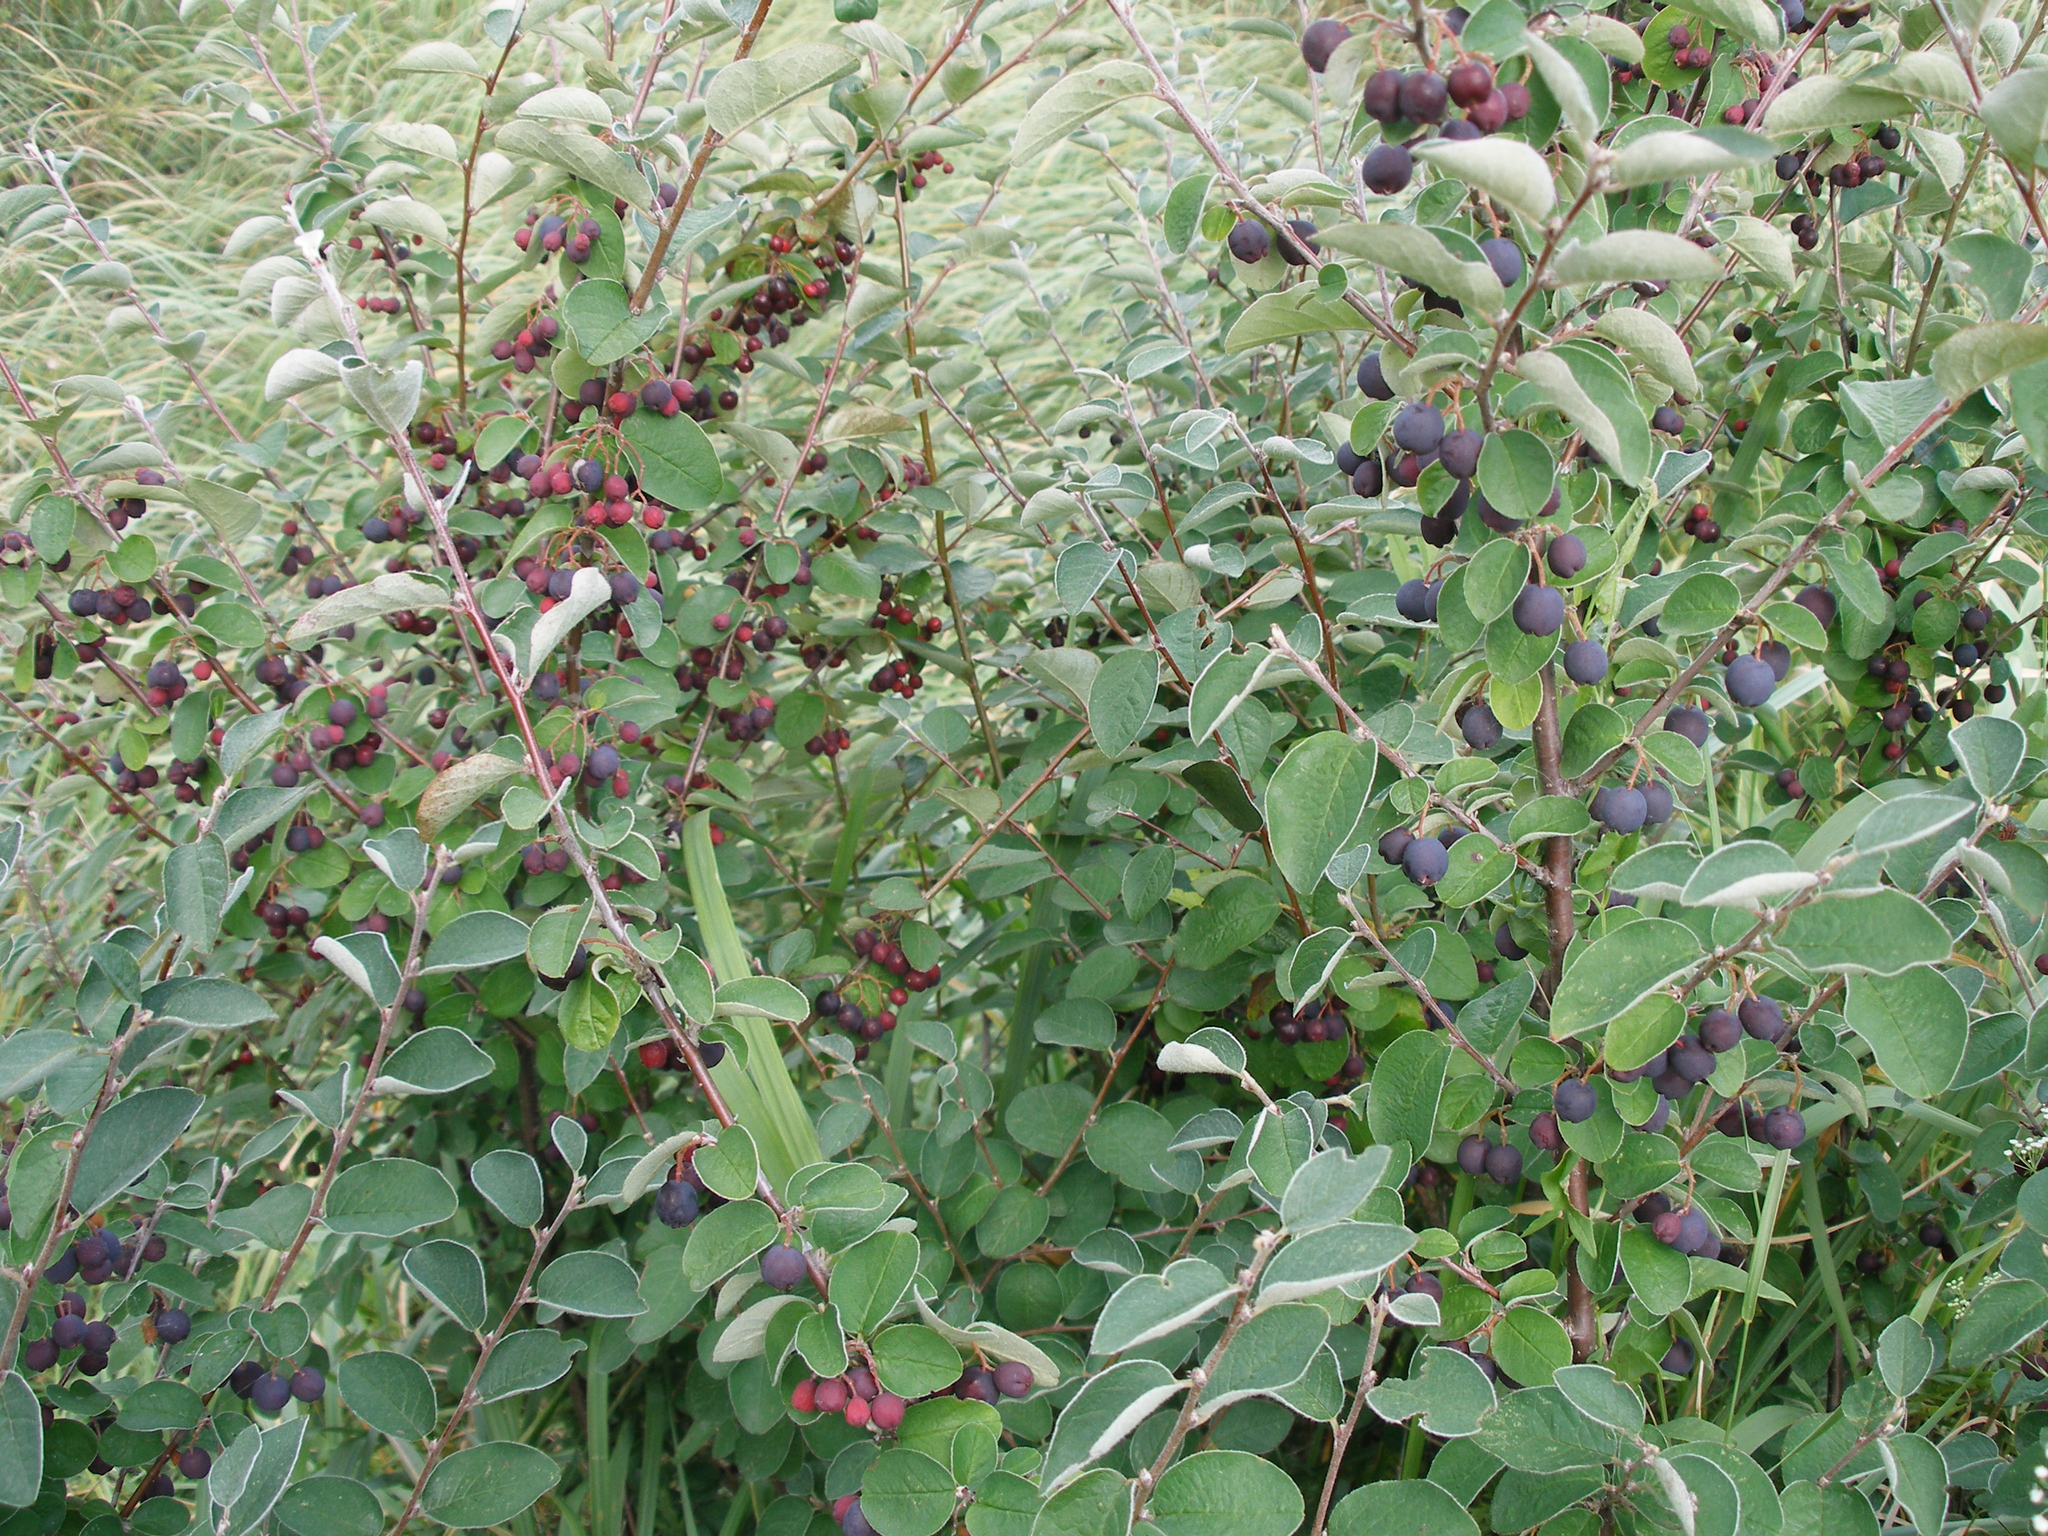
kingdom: Plantae
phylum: Tracheophyta
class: Magnoliopsida
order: Rosales
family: Rosaceae
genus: Cotoneaster
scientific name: Cotoneaster melanocarpus
